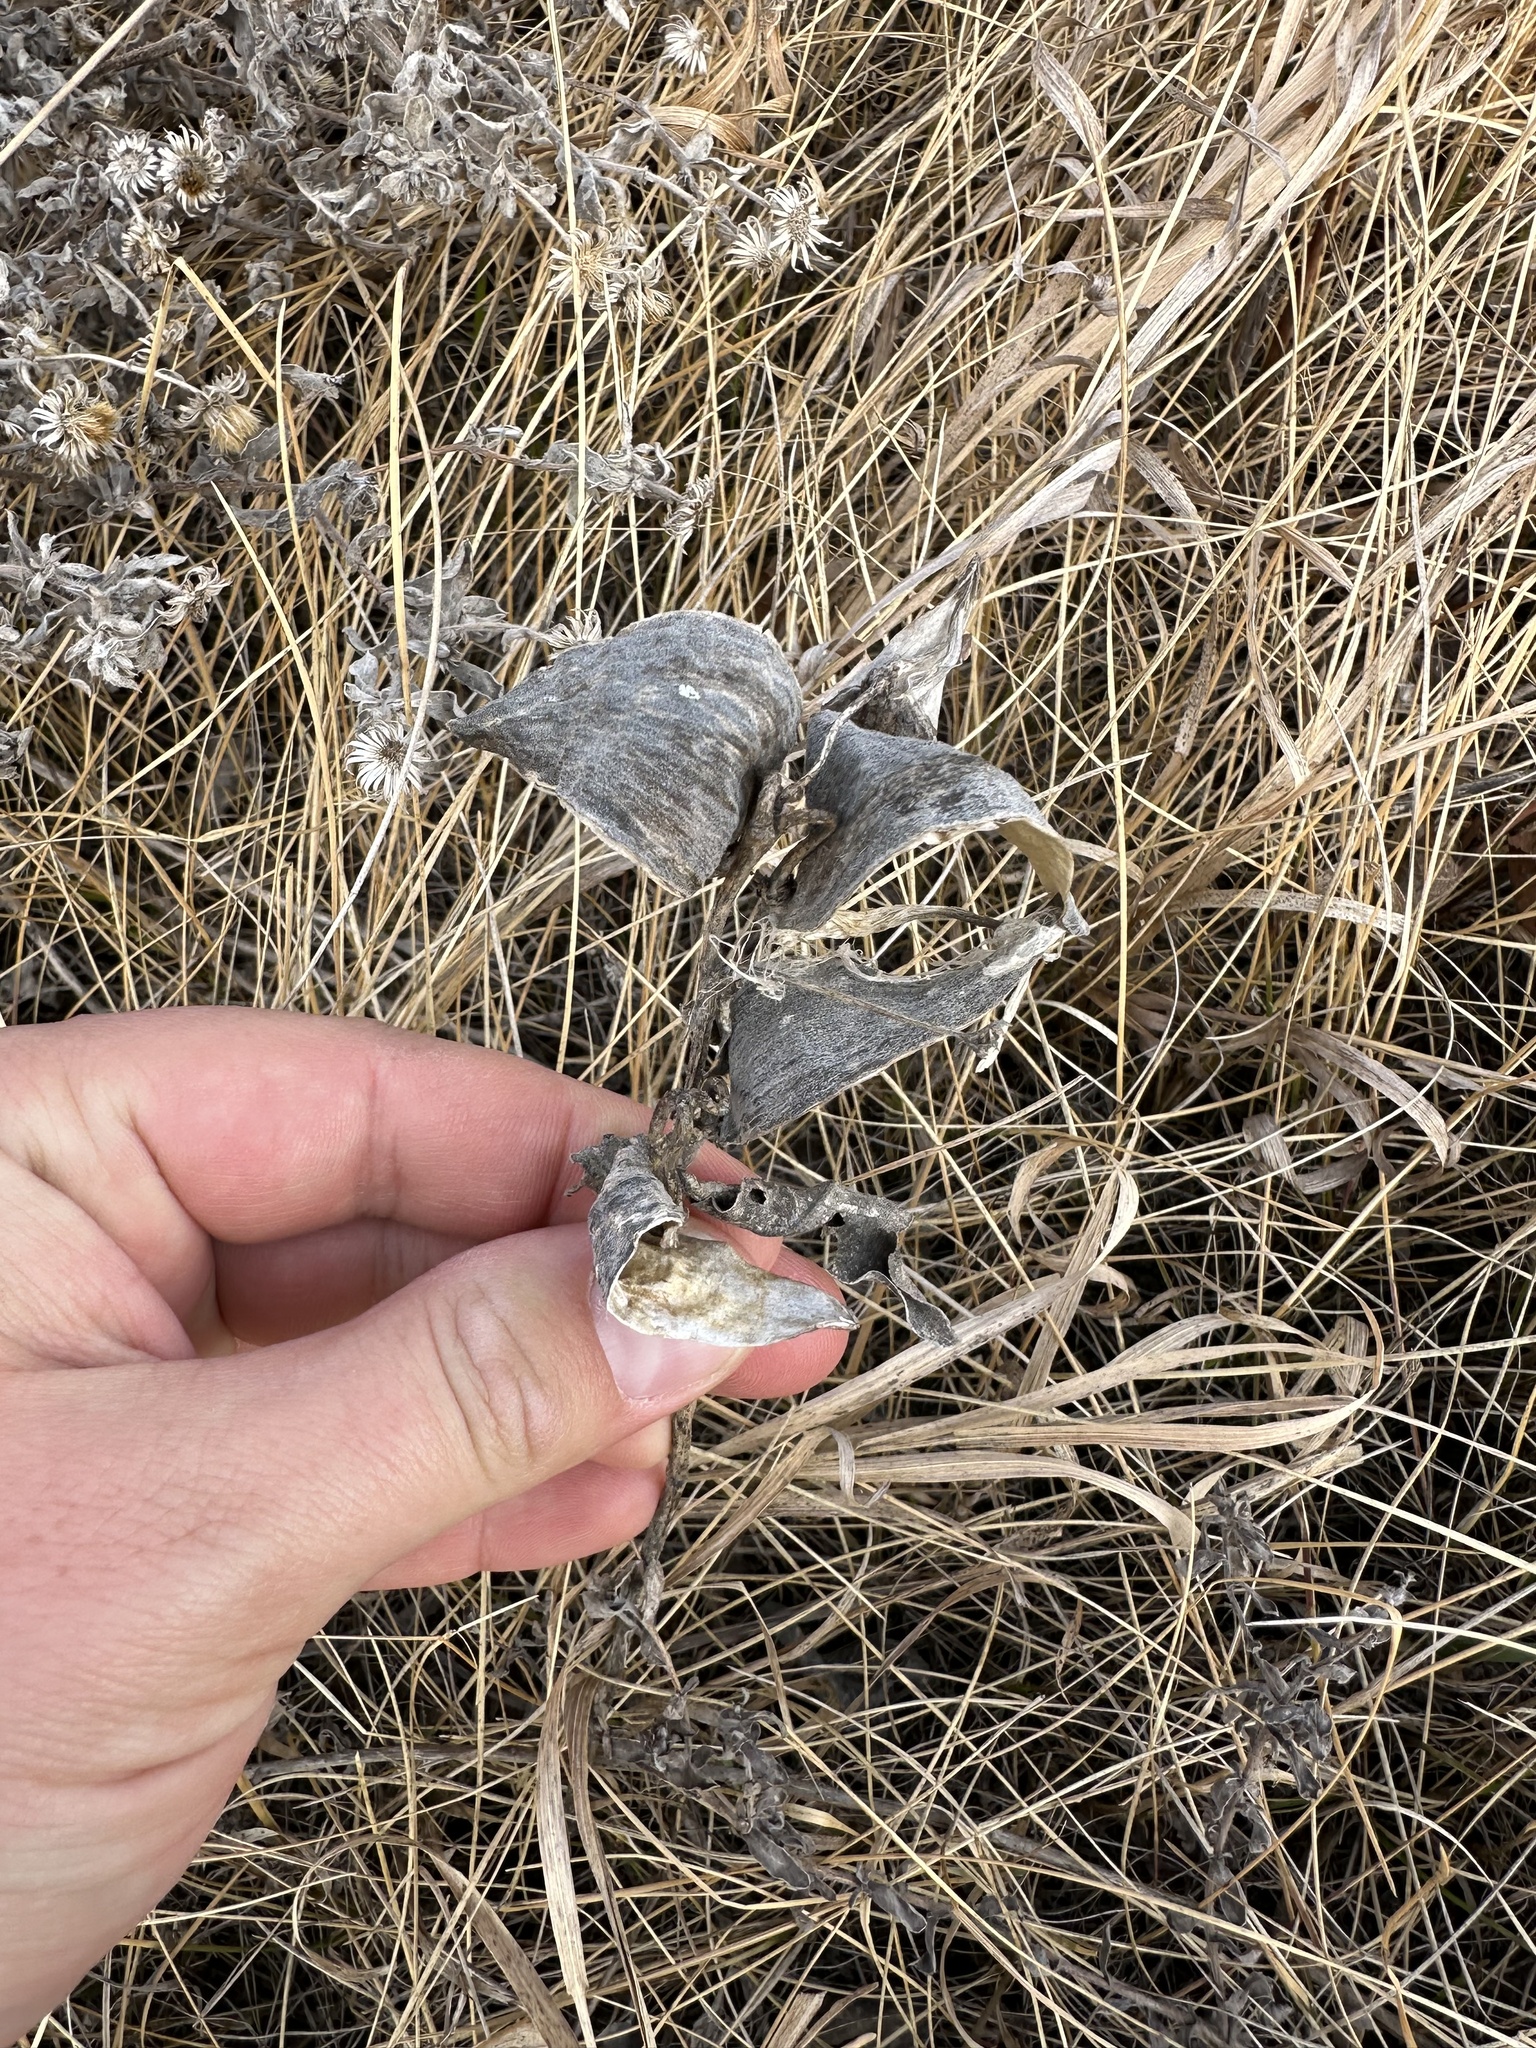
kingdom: Plantae
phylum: Tracheophyta
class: Magnoliopsida
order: Gentianales
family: Apocynaceae
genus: Asclepias
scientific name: Asclepias ovalifolia
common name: Dwarf milkweed
